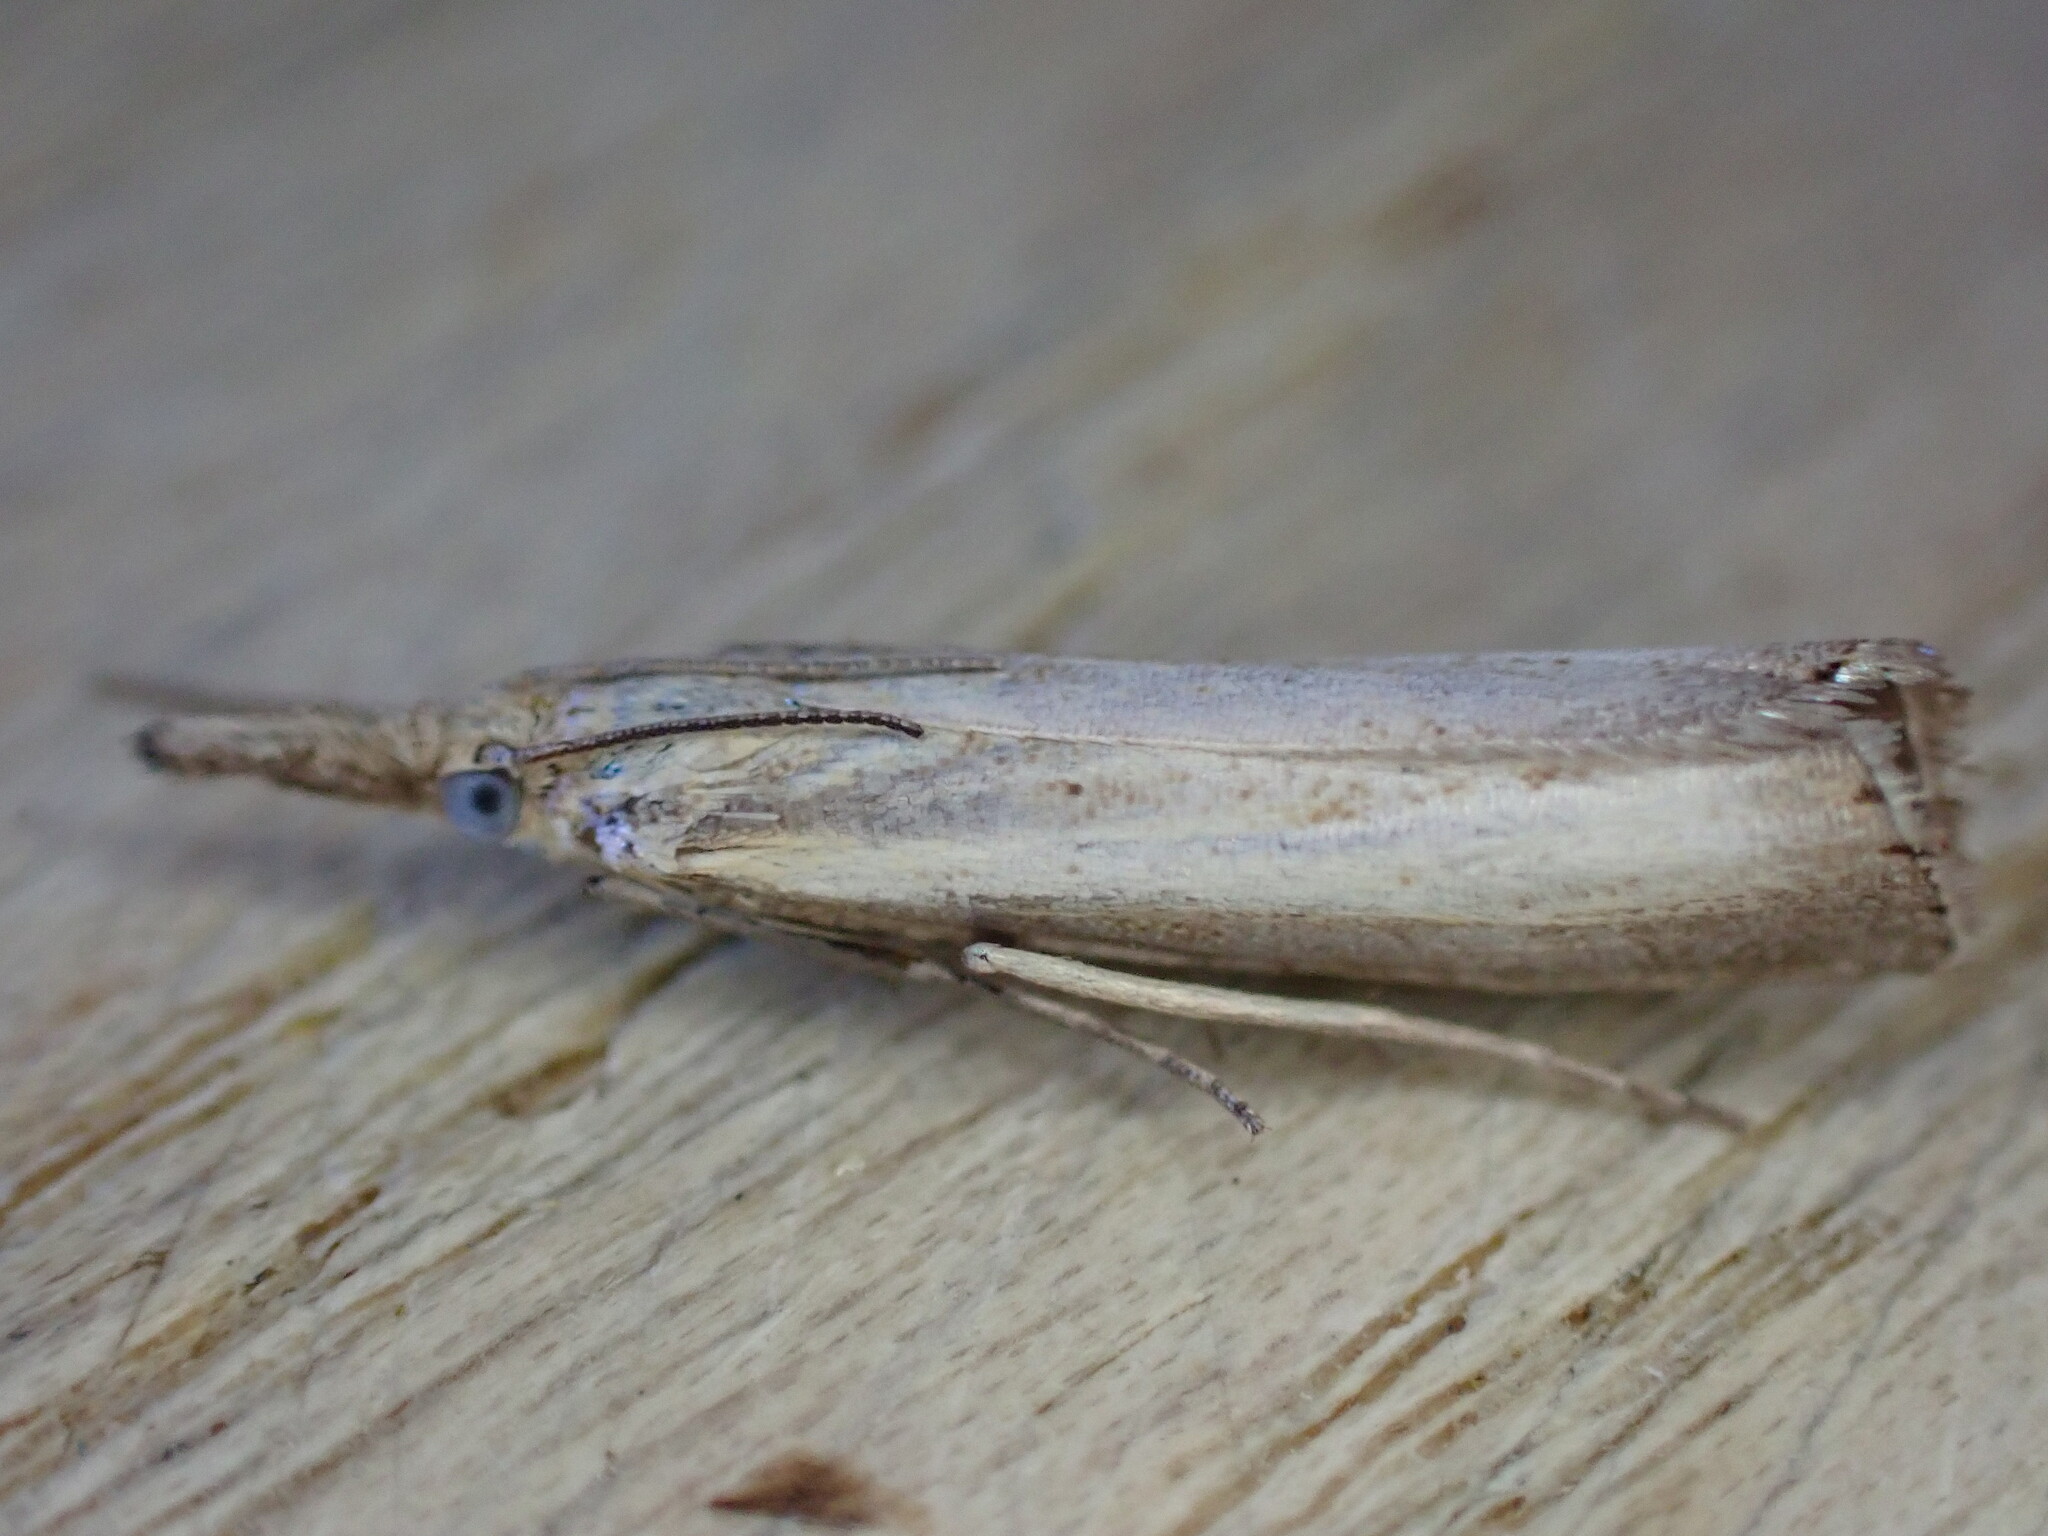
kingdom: Animalia
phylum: Arthropoda
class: Insecta
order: Lepidoptera
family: Crambidae
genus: Agriphila
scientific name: Agriphila straminella
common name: Straw grass-veneer
